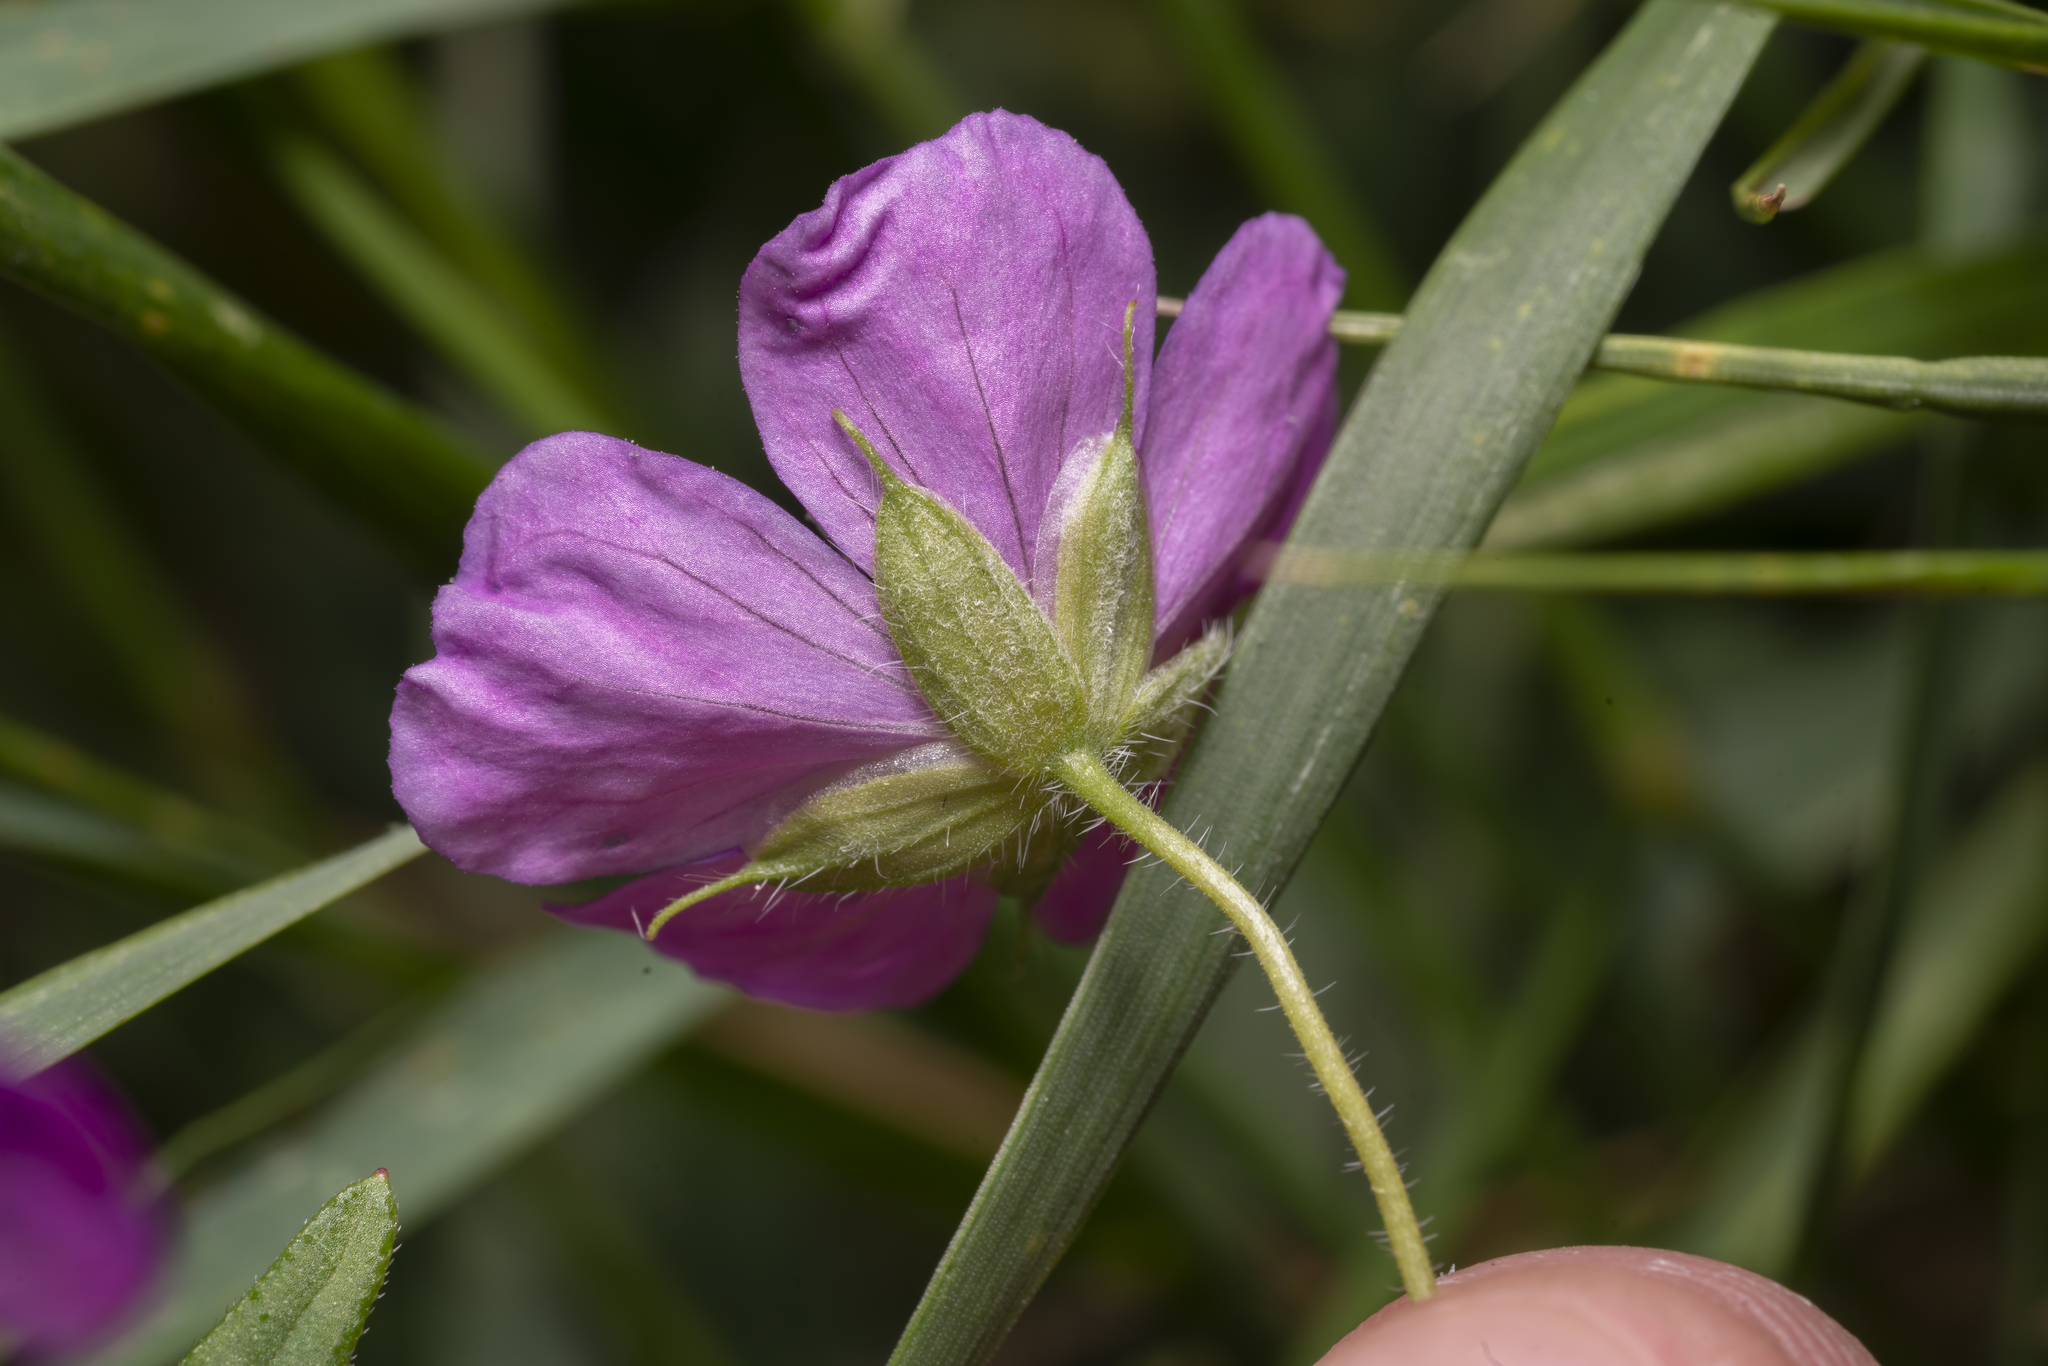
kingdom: Plantae
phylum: Tracheophyta
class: Magnoliopsida
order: Geraniales
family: Geraniaceae
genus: Geranium
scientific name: Geranium sanguineum
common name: Bloody crane's-bill
